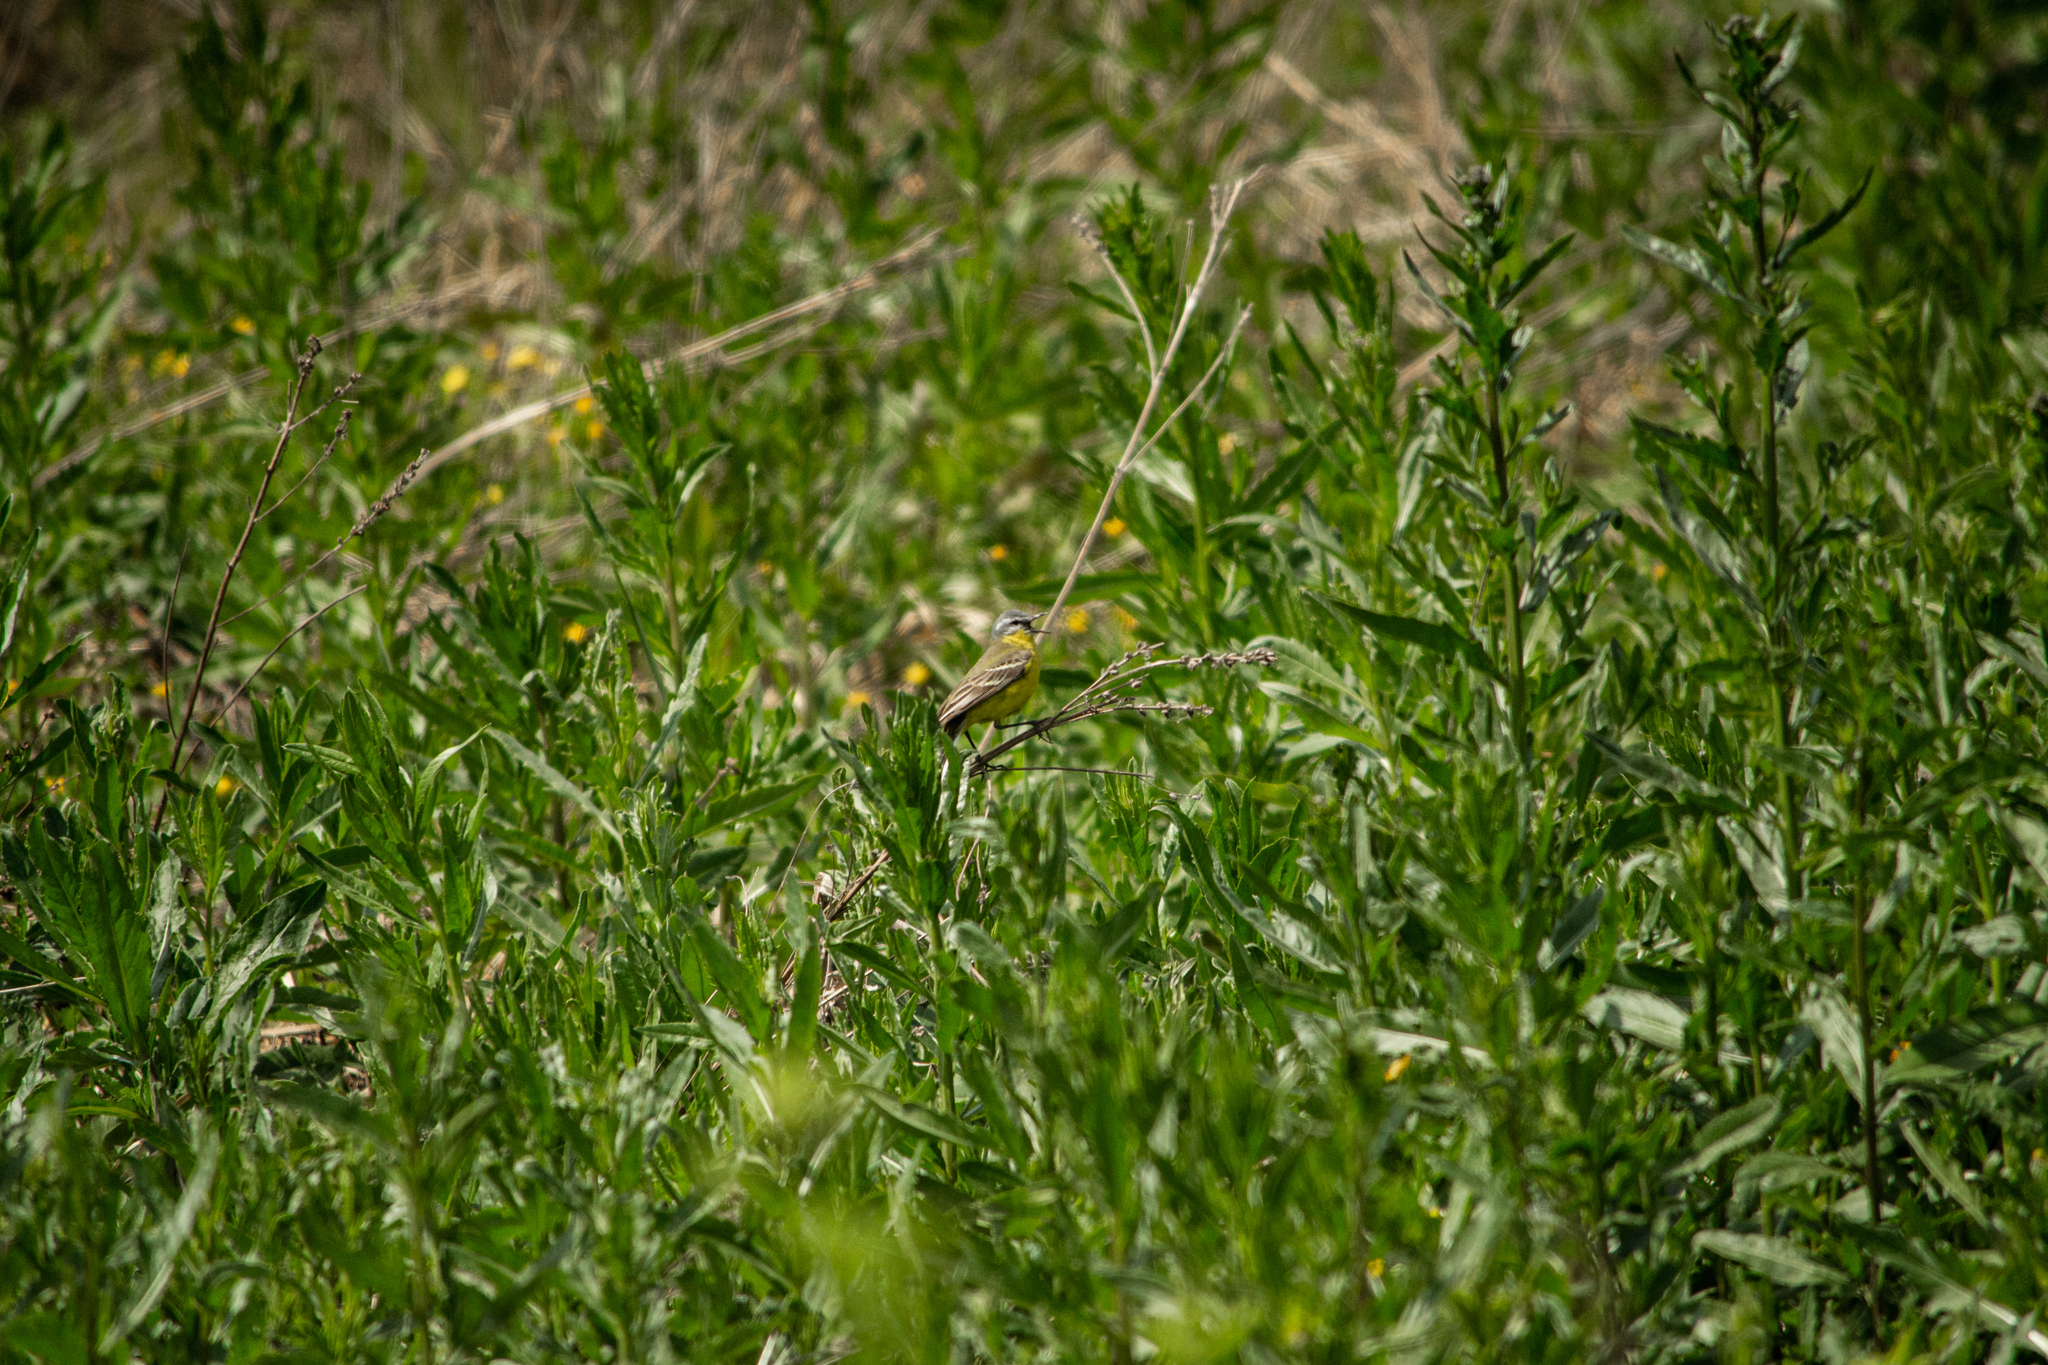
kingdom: Animalia
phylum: Chordata
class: Aves
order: Passeriformes
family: Motacillidae
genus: Motacilla
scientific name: Motacilla flava
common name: Western yellow wagtail
